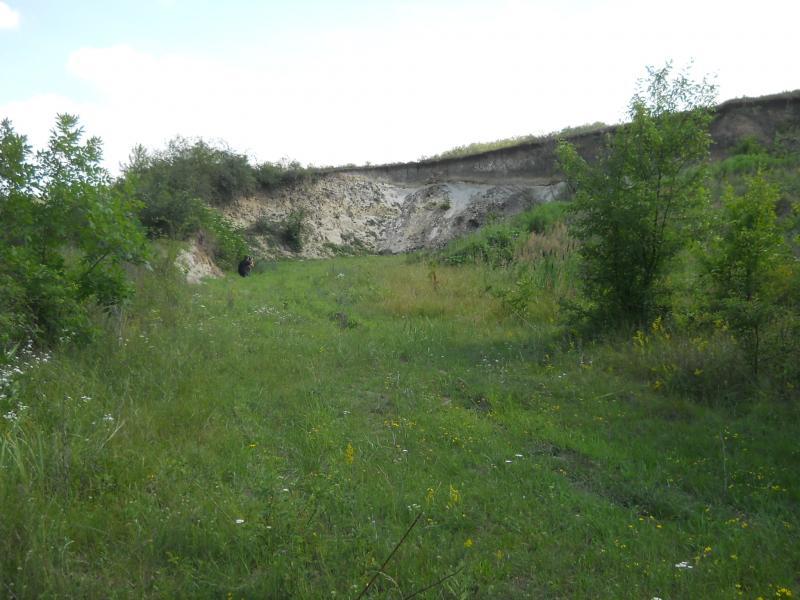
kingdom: Animalia
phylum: Chordata
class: Aves
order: Coraciiformes
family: Meropidae
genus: Merops
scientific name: Merops apiaster
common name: European bee-eater
